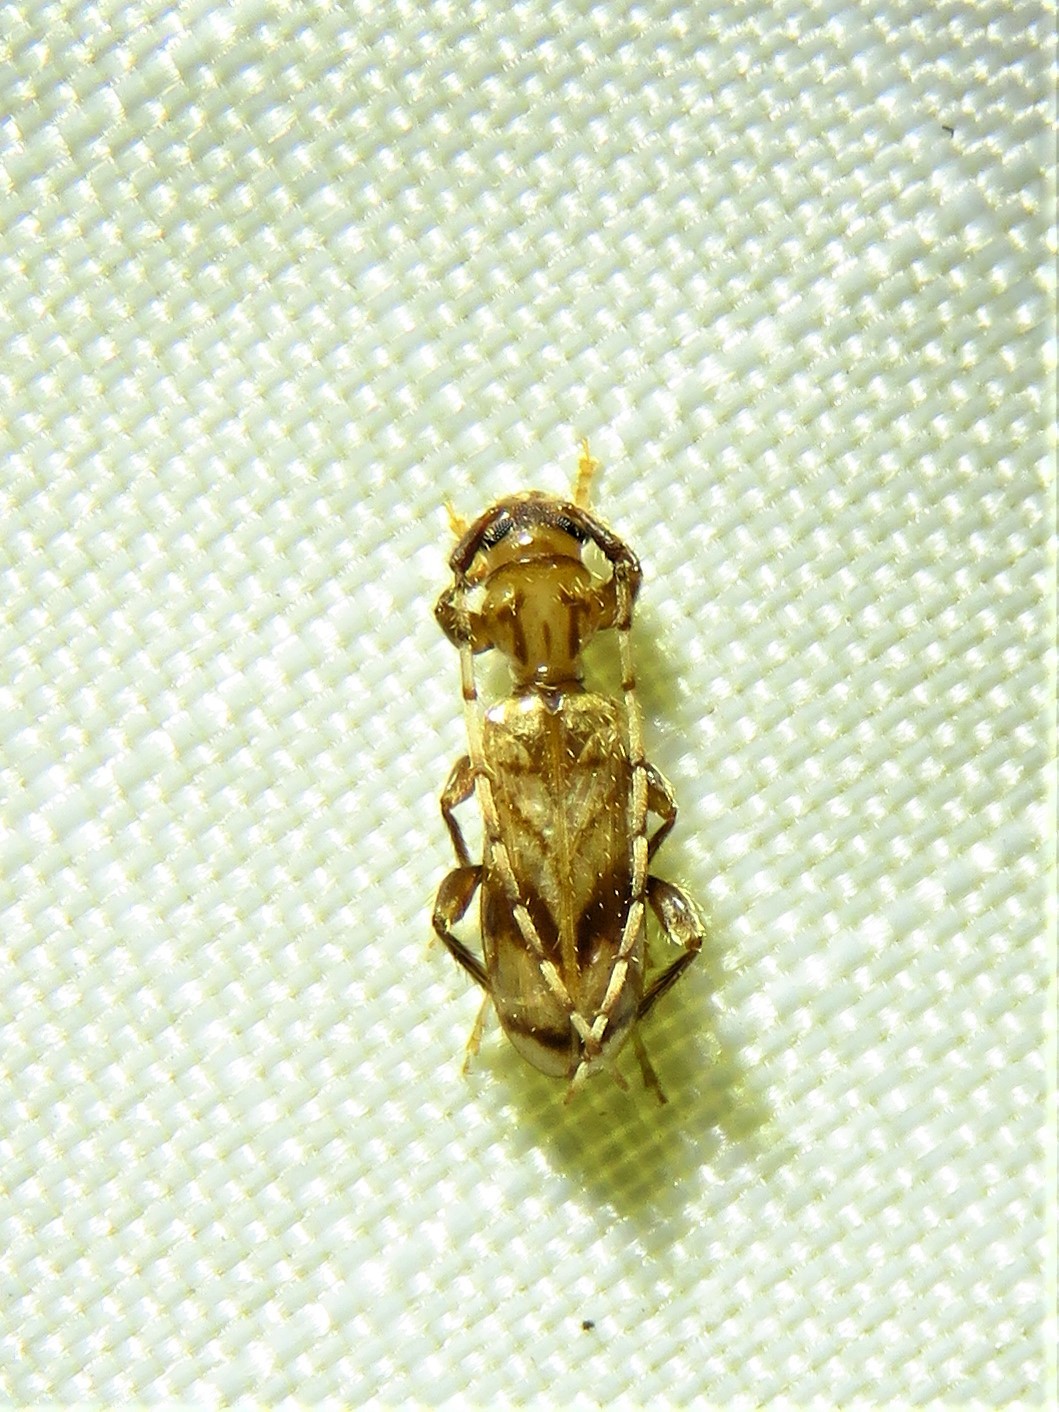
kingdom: Animalia
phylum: Arthropoda
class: Insecta
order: Coleoptera
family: Cerambycidae
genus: Obrium
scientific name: Obrium maculatum
